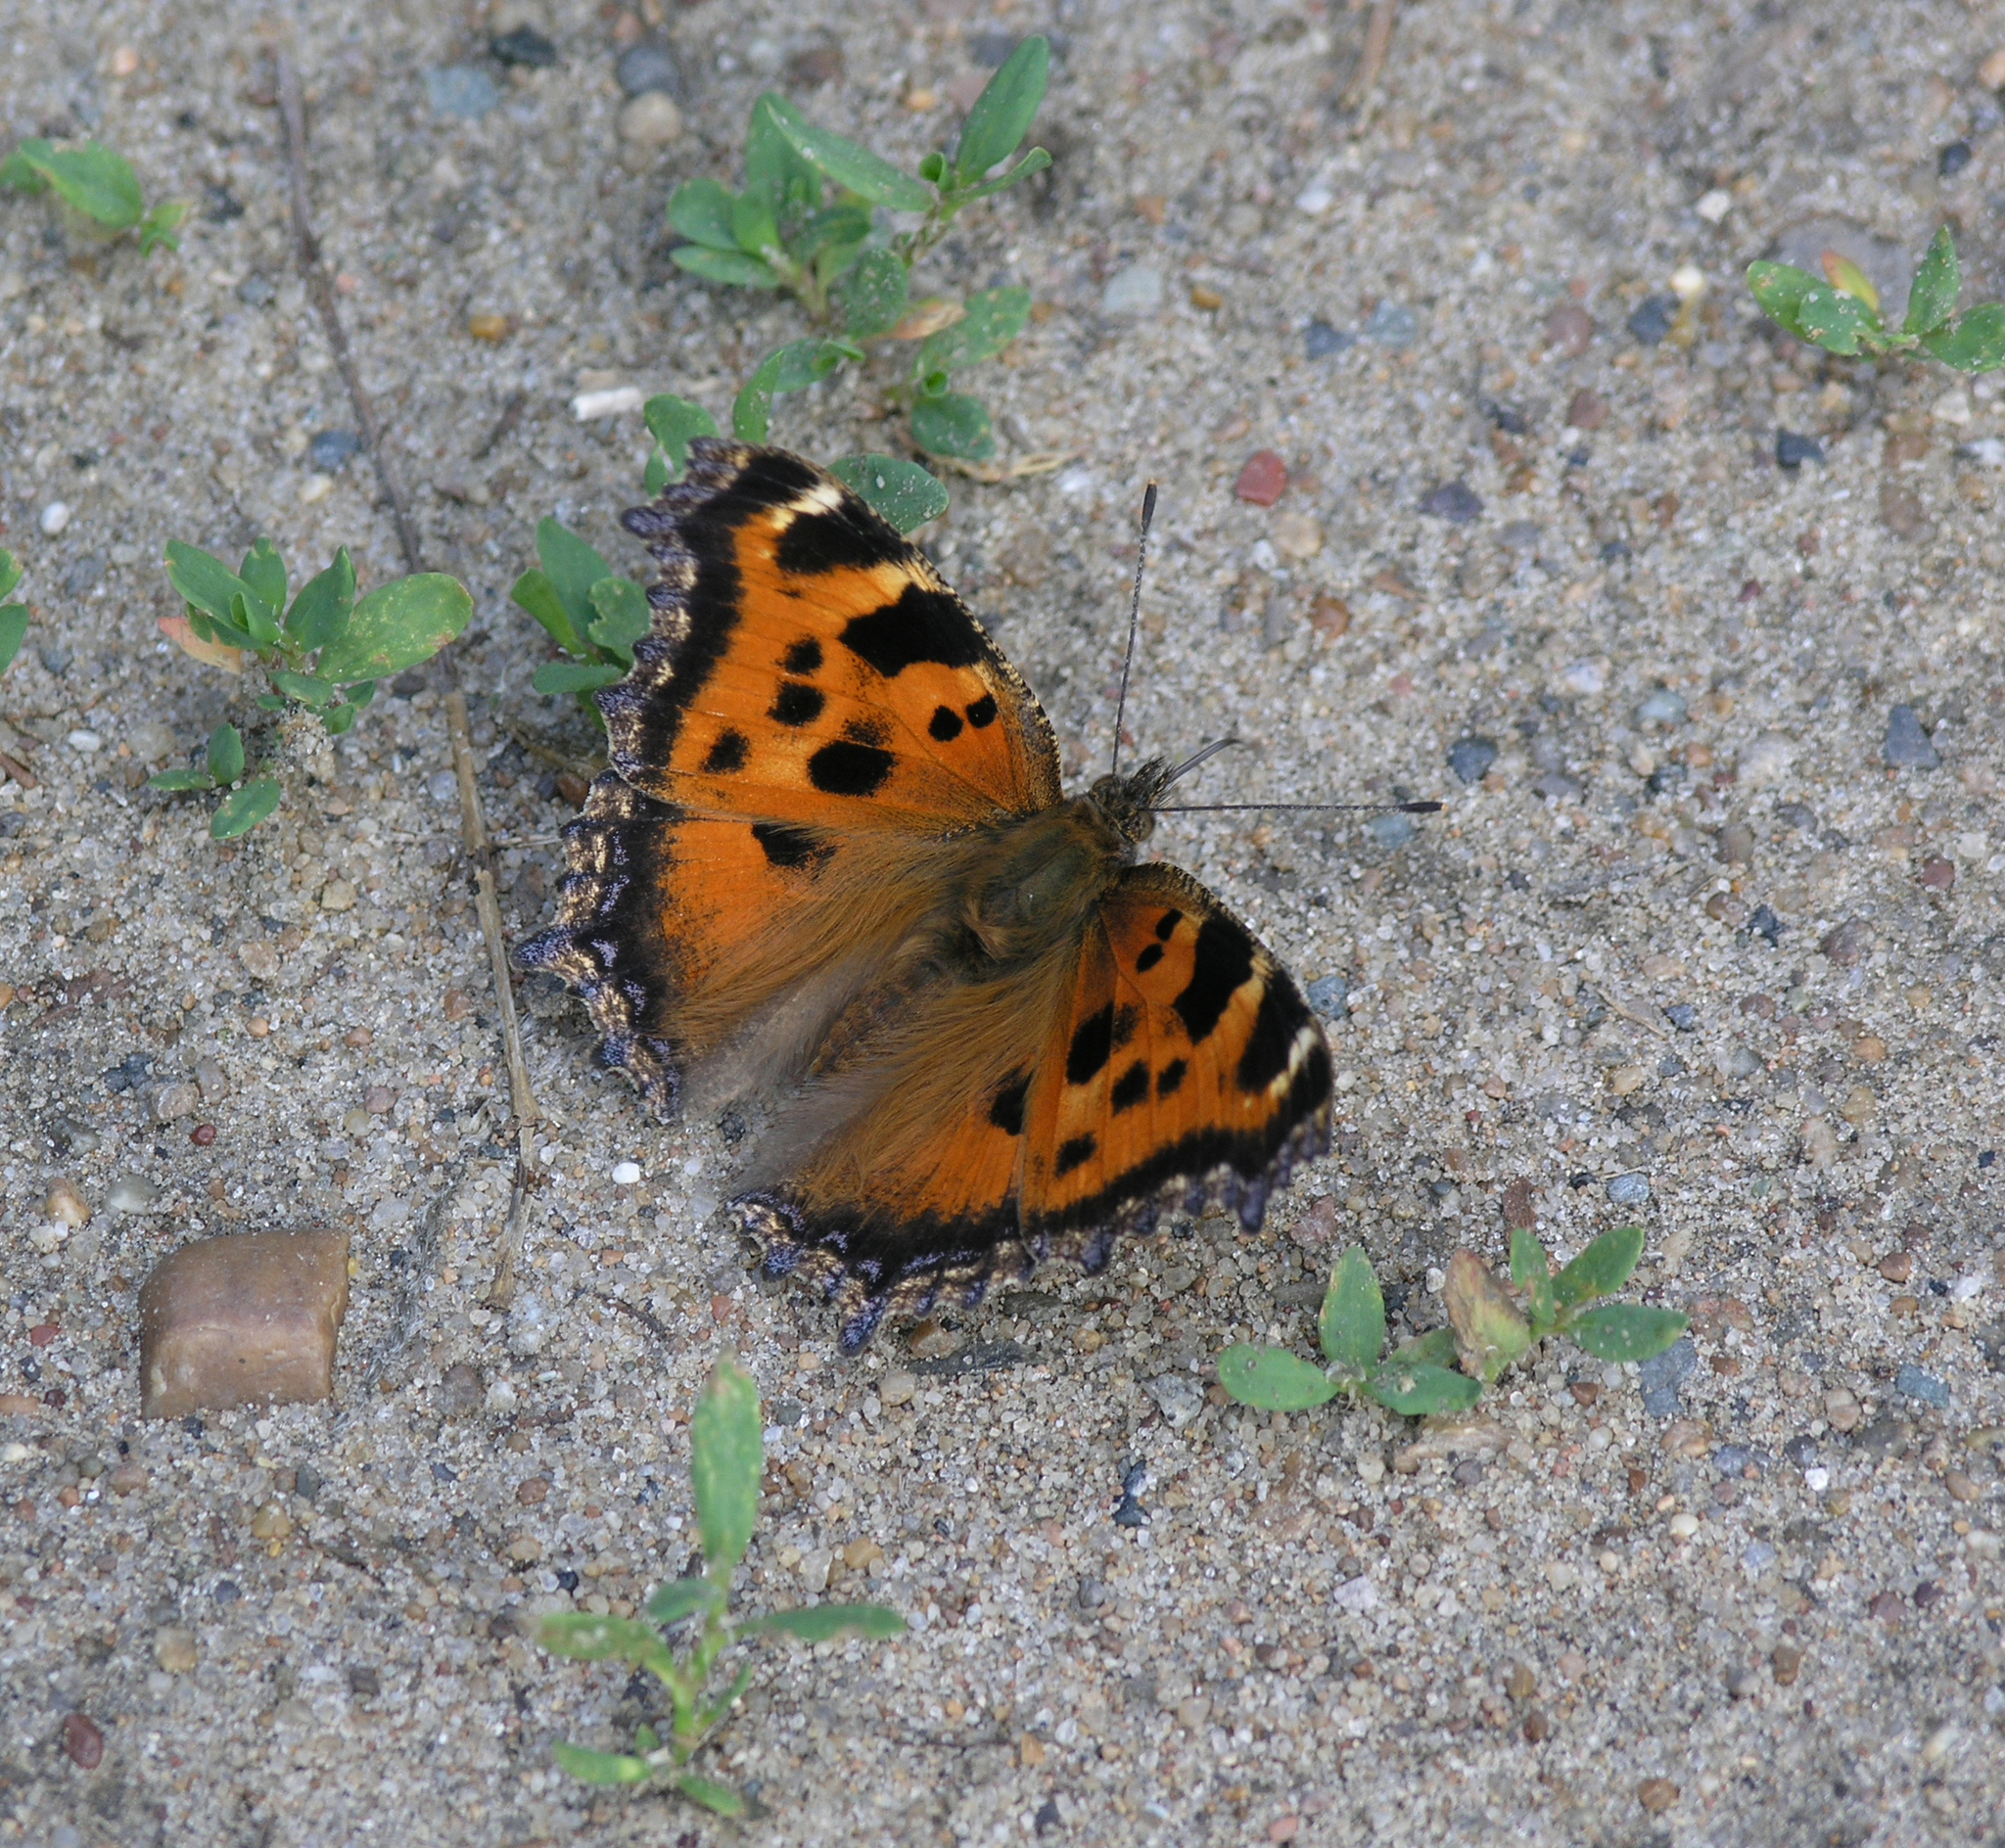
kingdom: Animalia
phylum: Arthropoda
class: Insecta
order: Lepidoptera
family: Nymphalidae
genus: Nymphalis
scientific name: Nymphalis xanthomelas
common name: Scarce tortoiseshell
